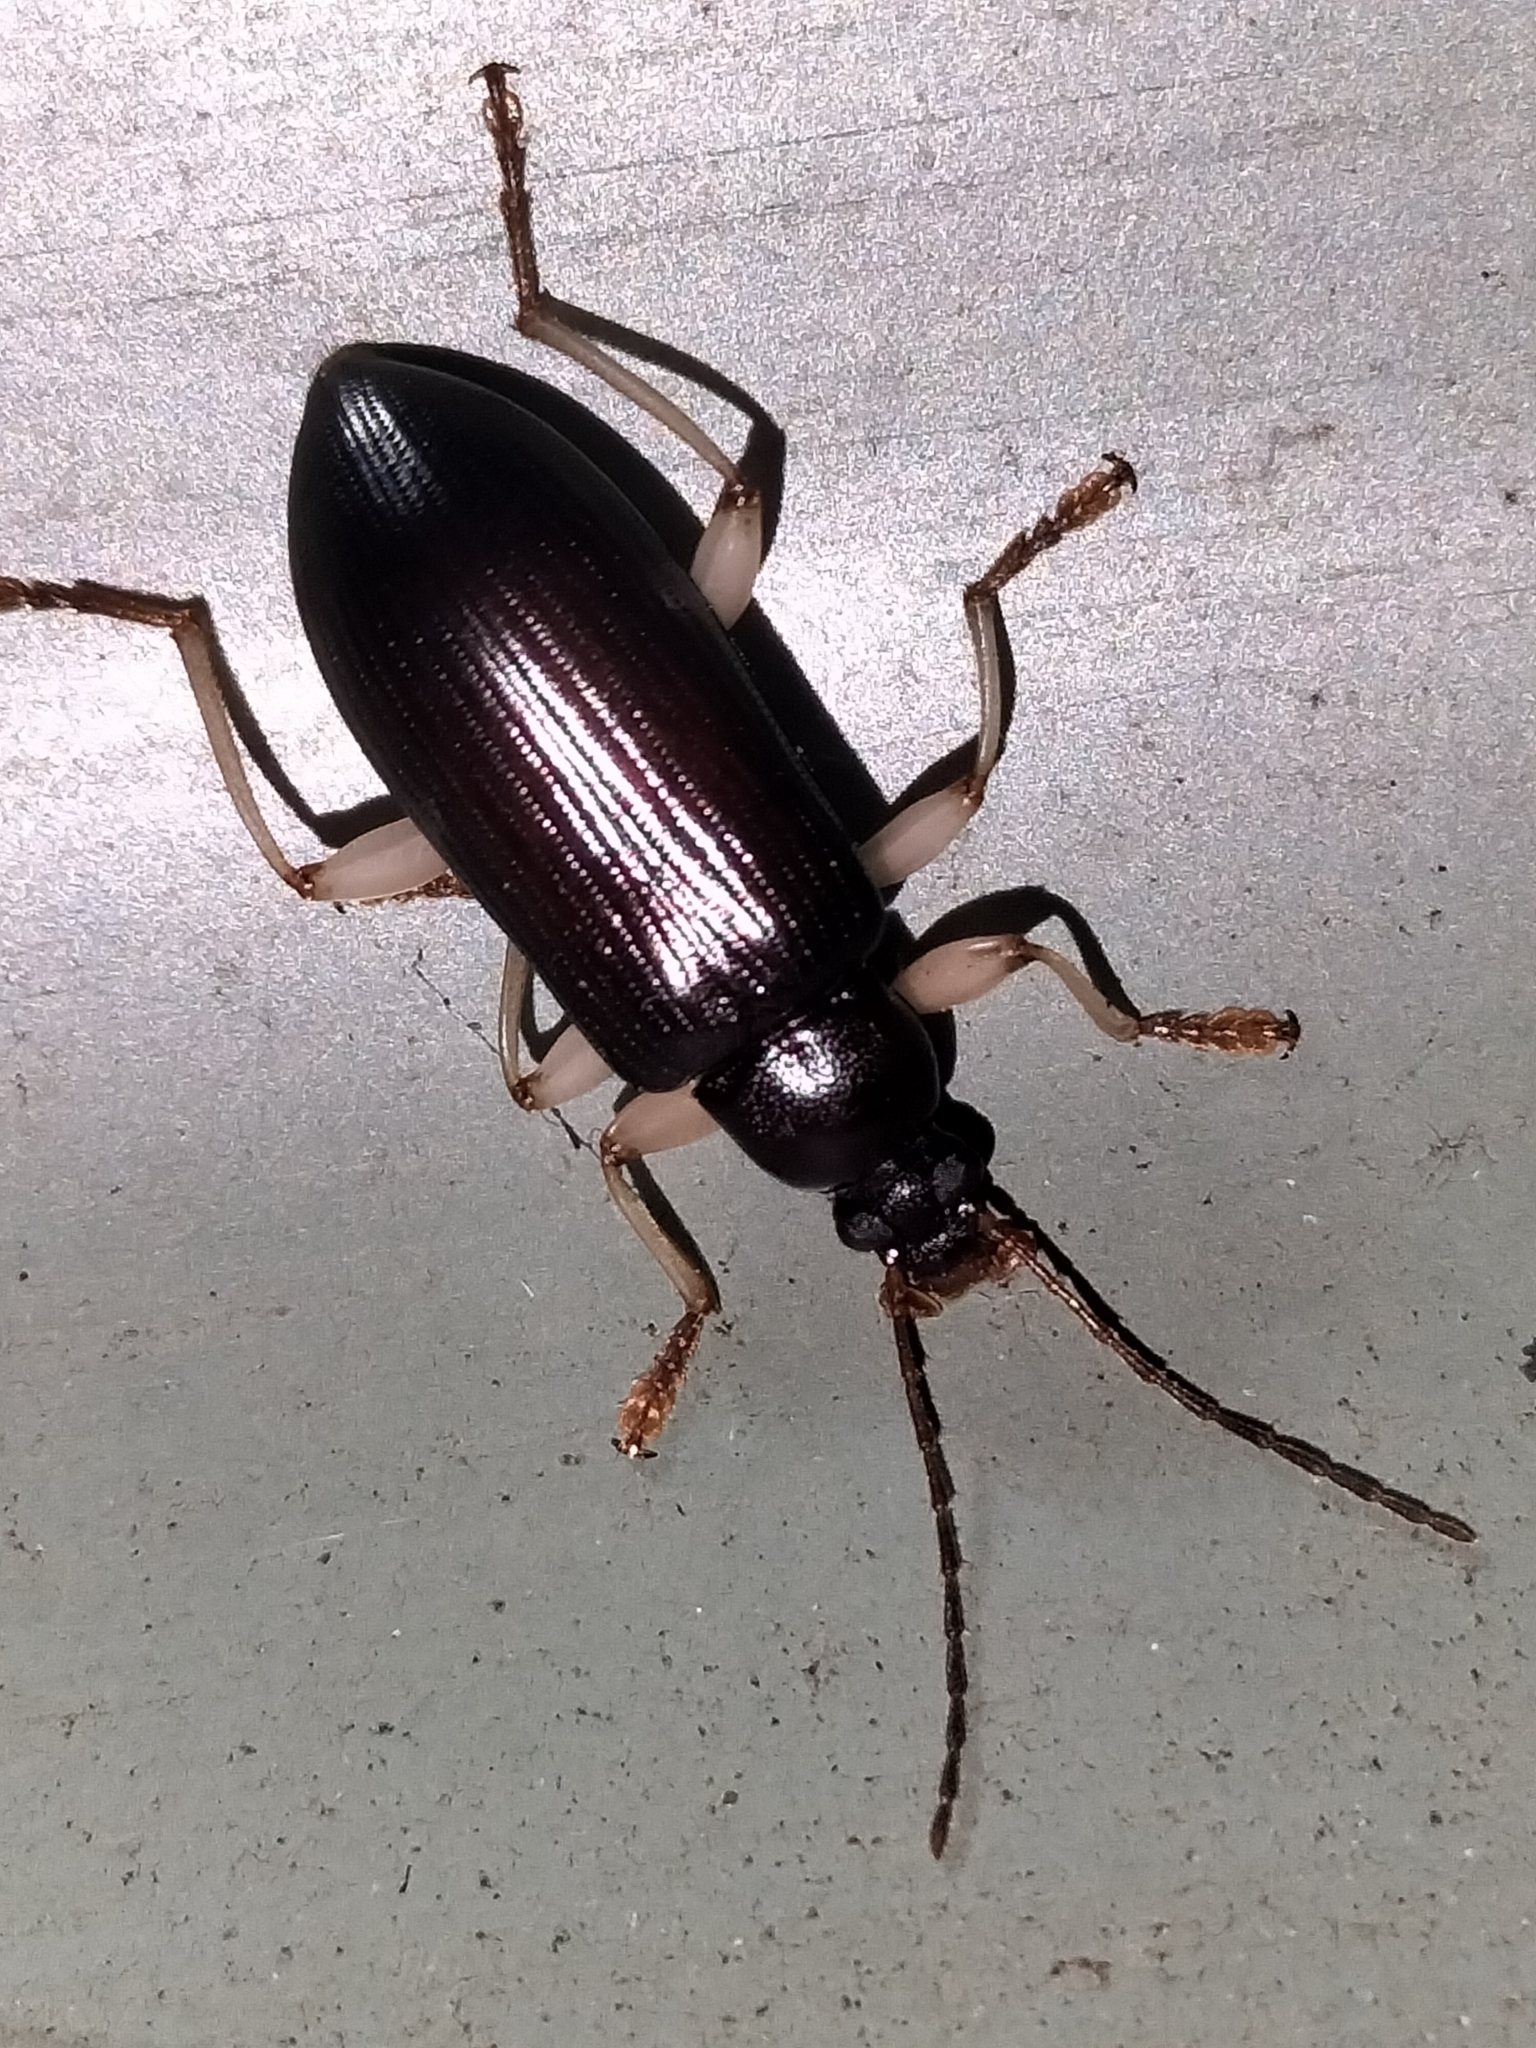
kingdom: Animalia
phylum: Arthropoda
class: Insecta
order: Coleoptera
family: Tenebrionidae
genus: Dimorphochilus
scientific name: Dimorphochilus
